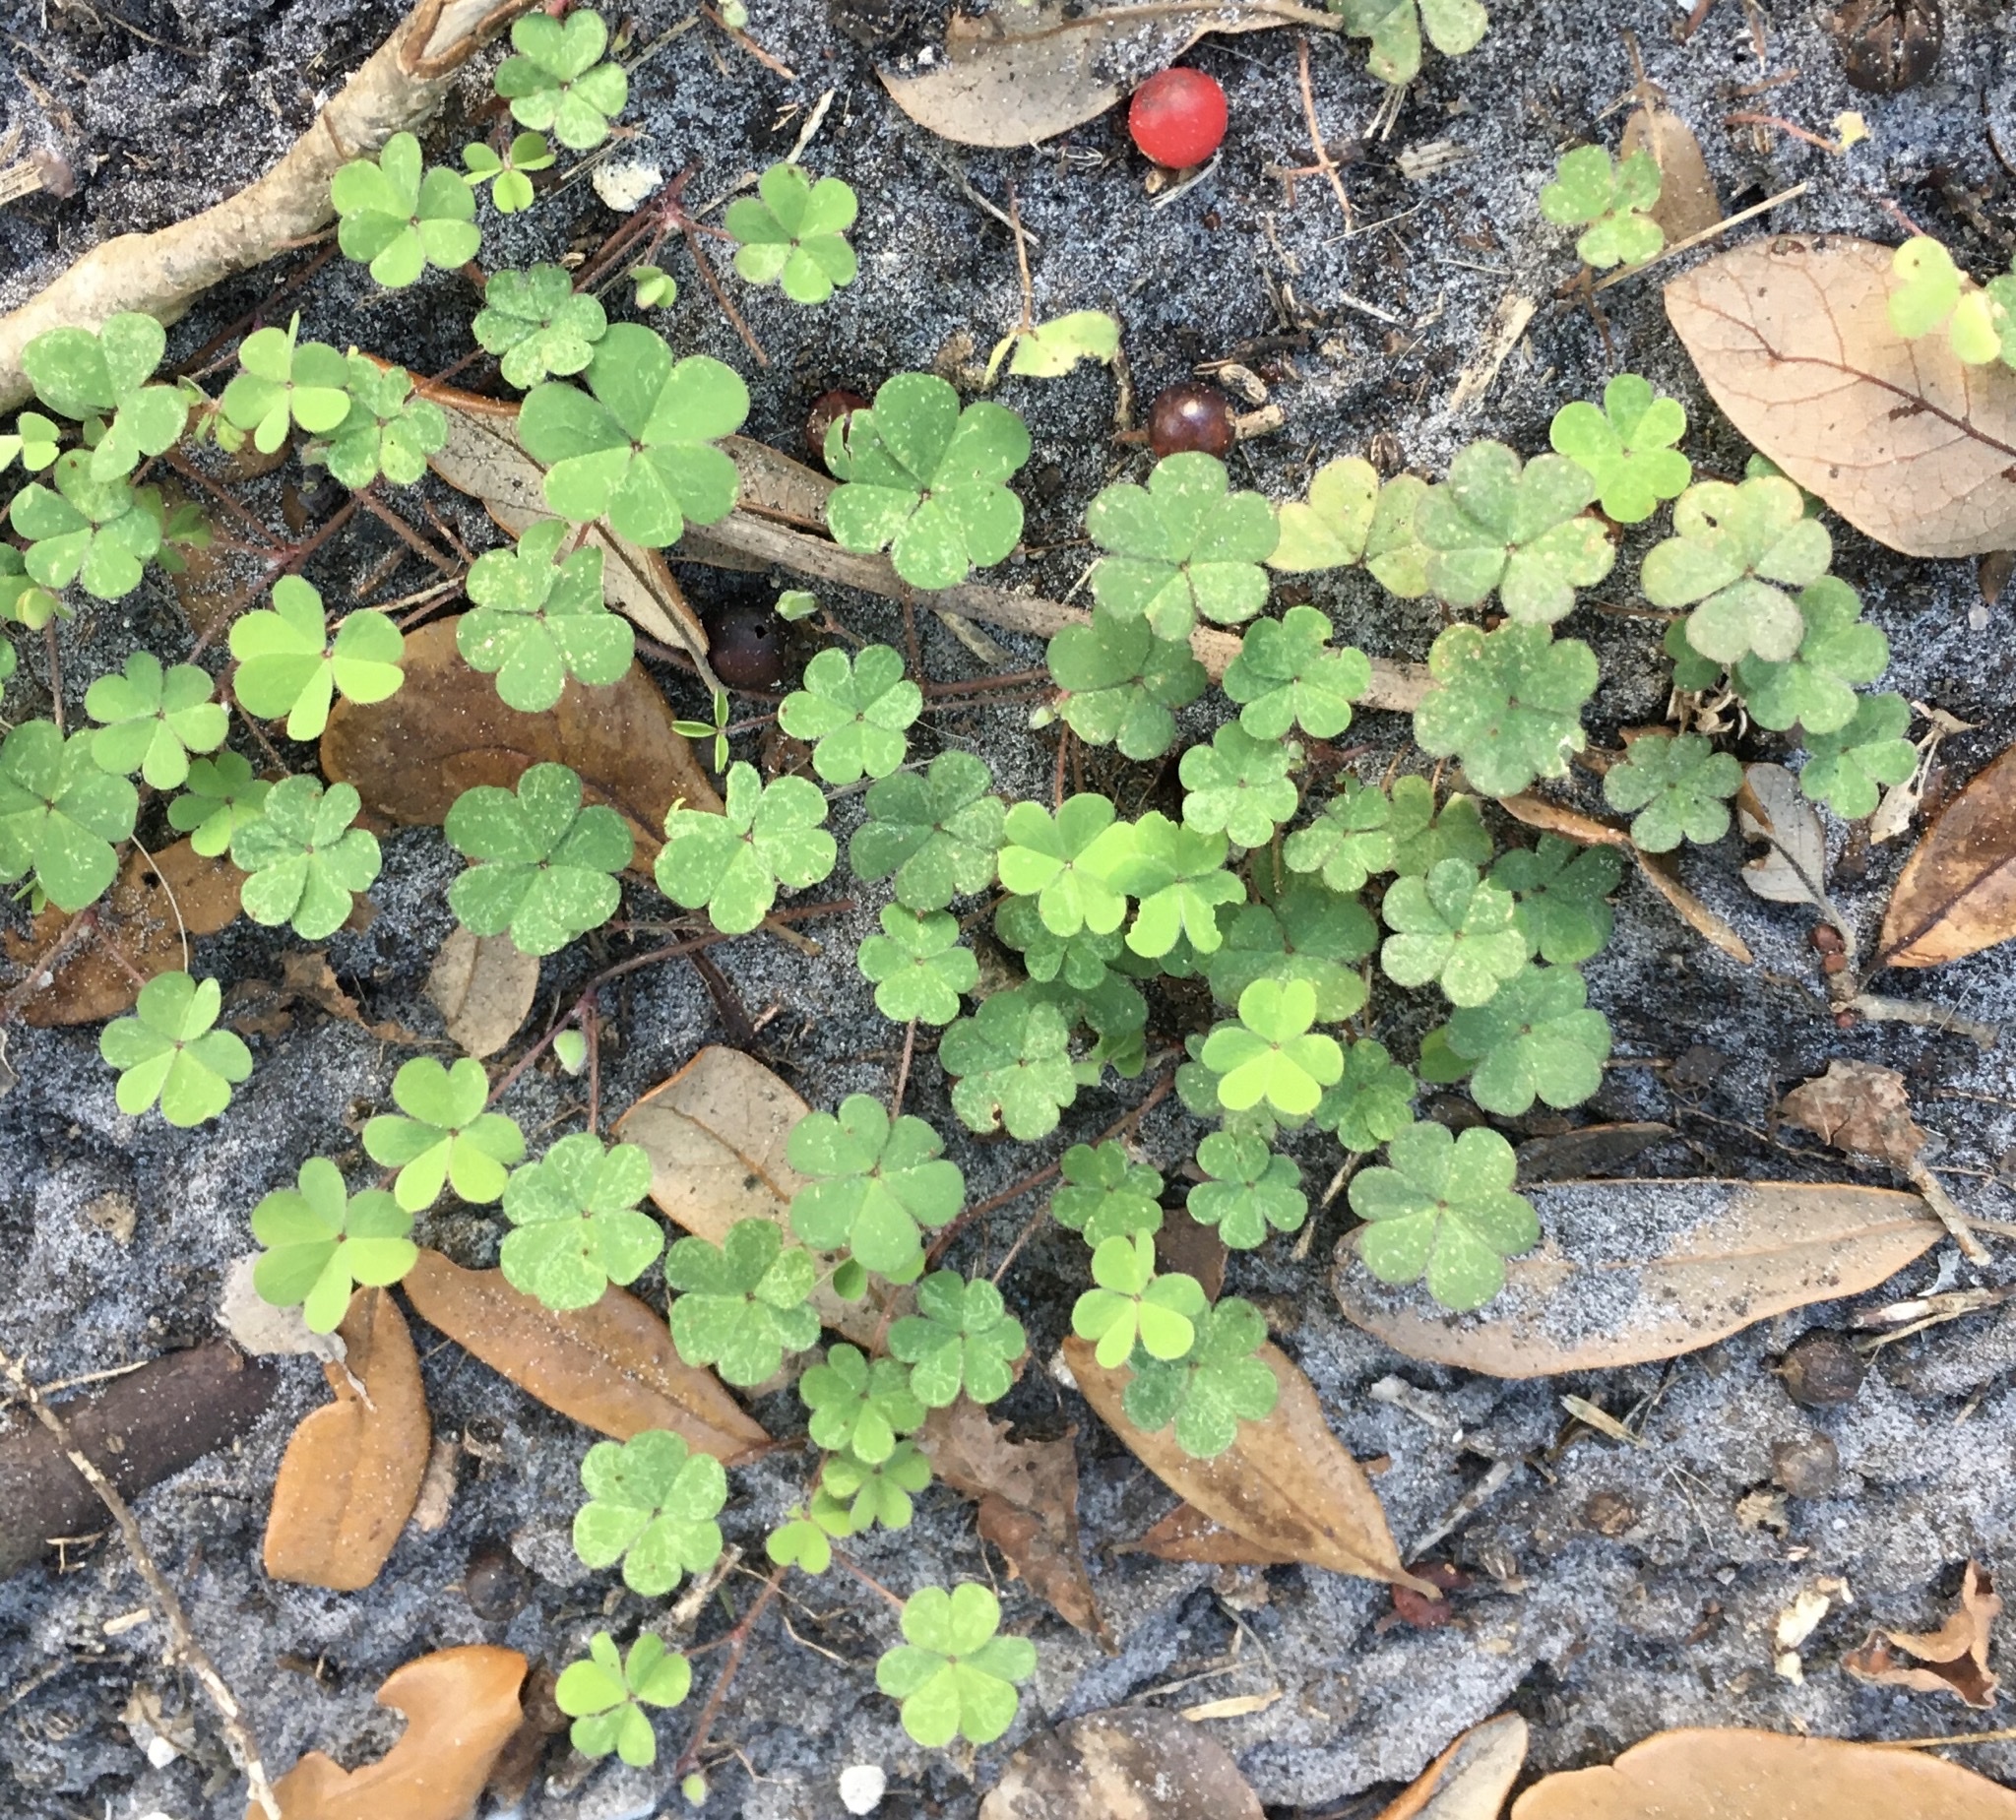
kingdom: Plantae
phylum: Tracheophyta
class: Magnoliopsida
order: Oxalidales
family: Oxalidaceae
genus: Oxalis
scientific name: Oxalis corniculata
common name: Procumbent yellow-sorrel
